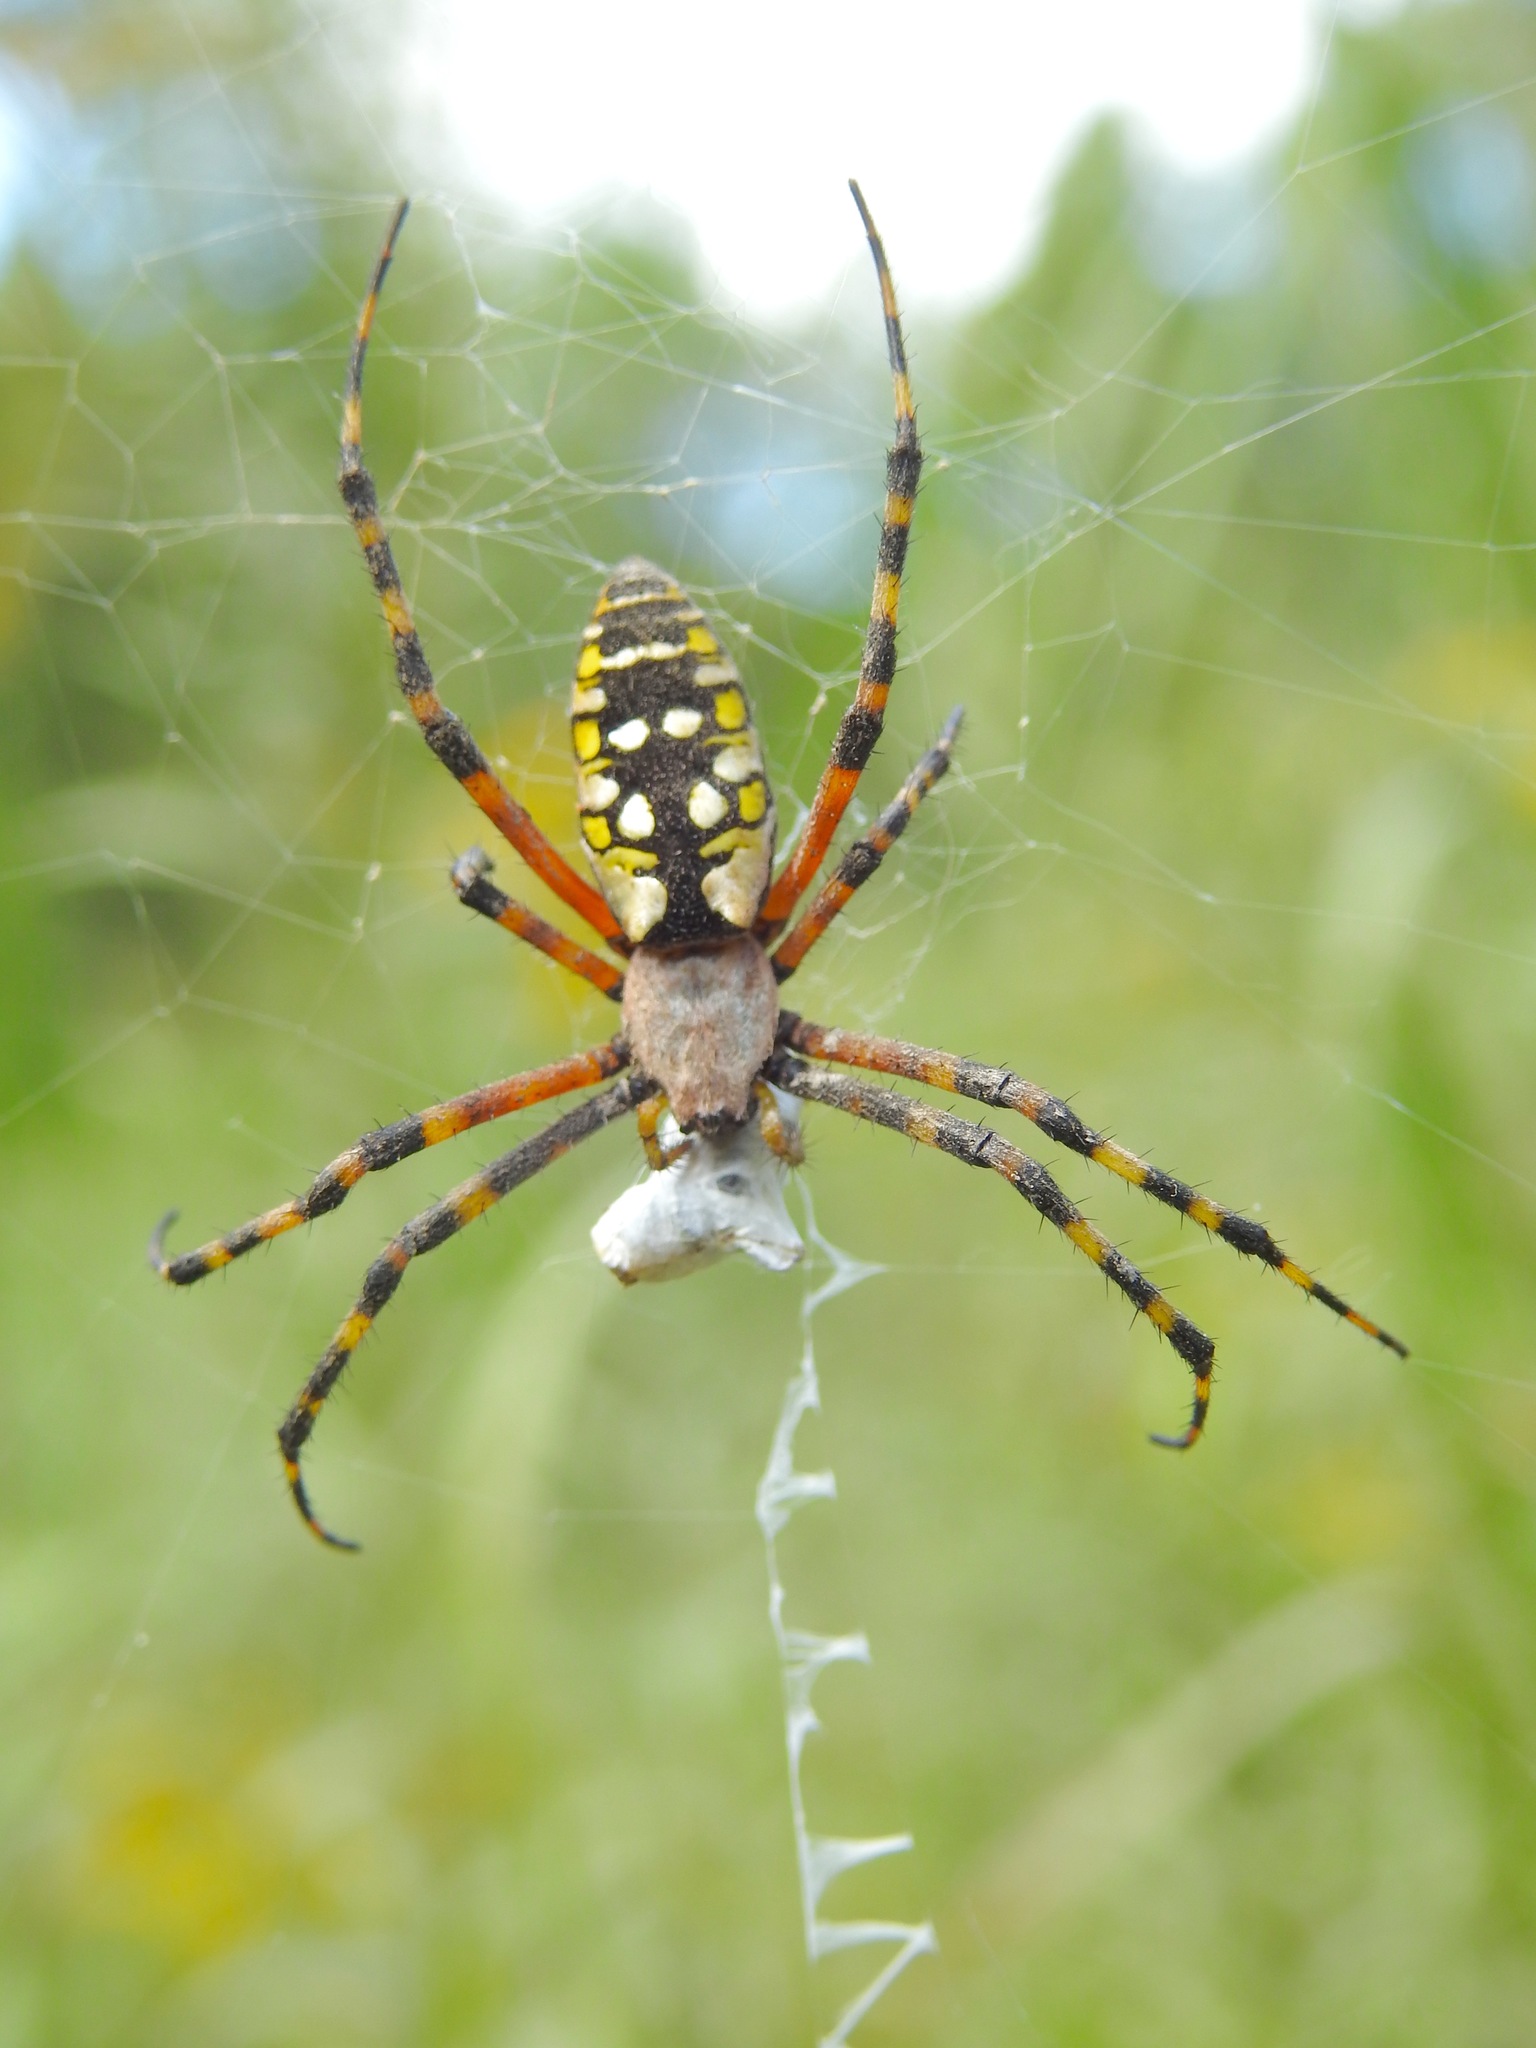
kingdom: Animalia
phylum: Arthropoda
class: Arachnida
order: Araneae
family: Araneidae
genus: Argiope
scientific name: Argiope aurantia
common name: Orb weavers
